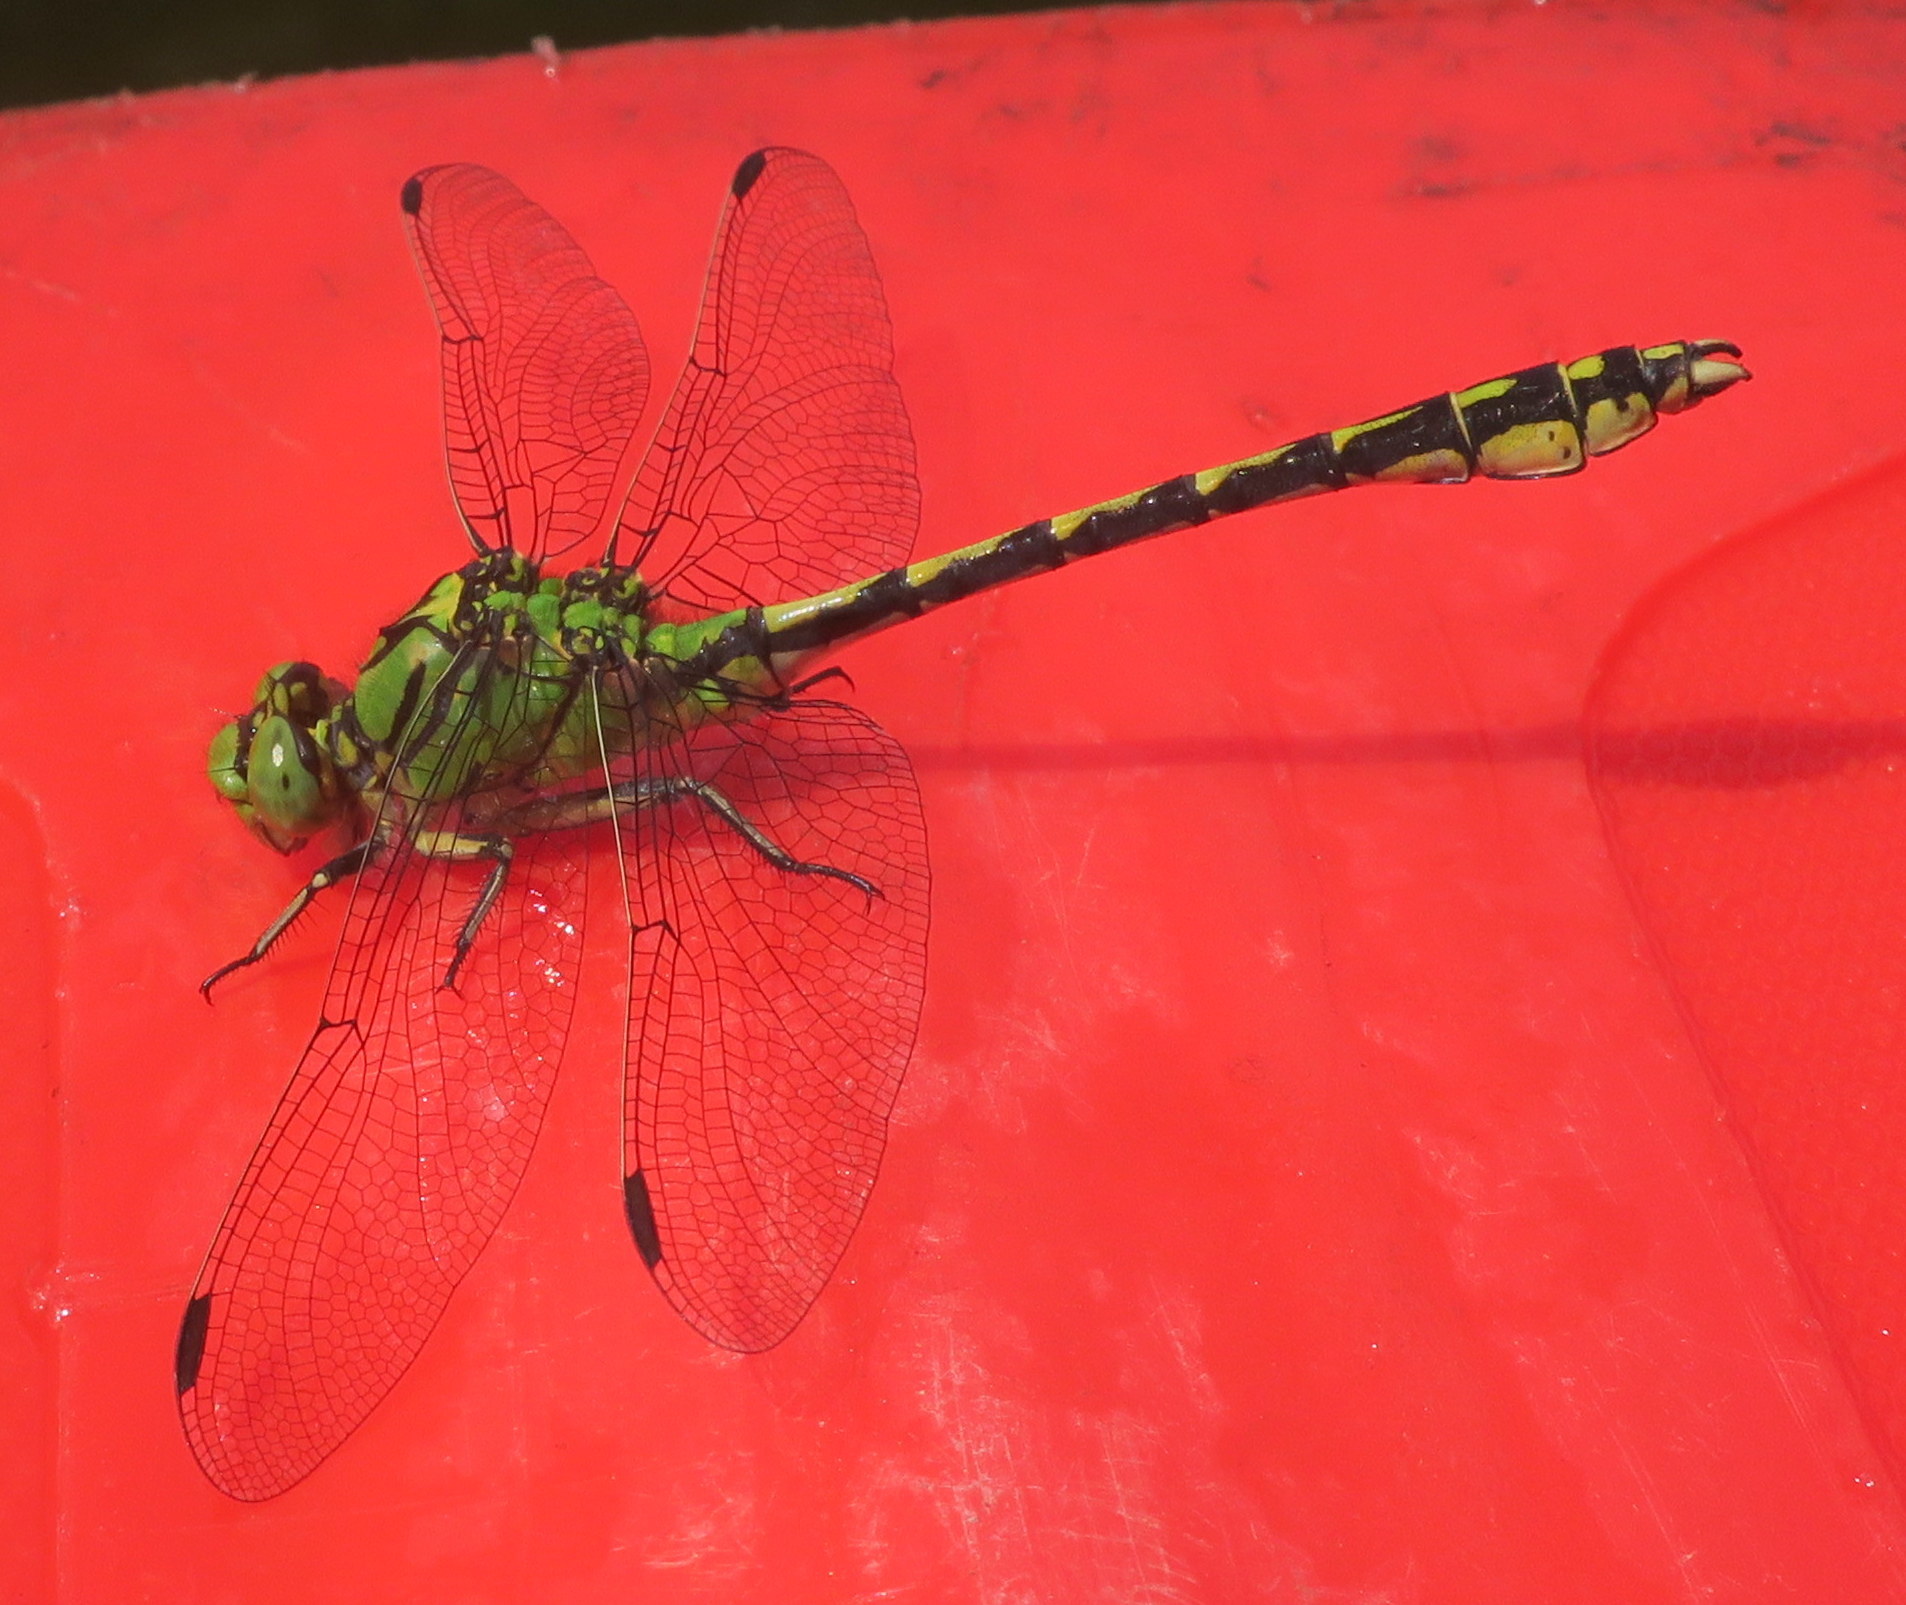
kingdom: Animalia
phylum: Arthropoda
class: Insecta
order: Odonata
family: Gomphidae
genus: Ophiogomphus
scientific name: Ophiogomphus cecilia
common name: Green snaketail
